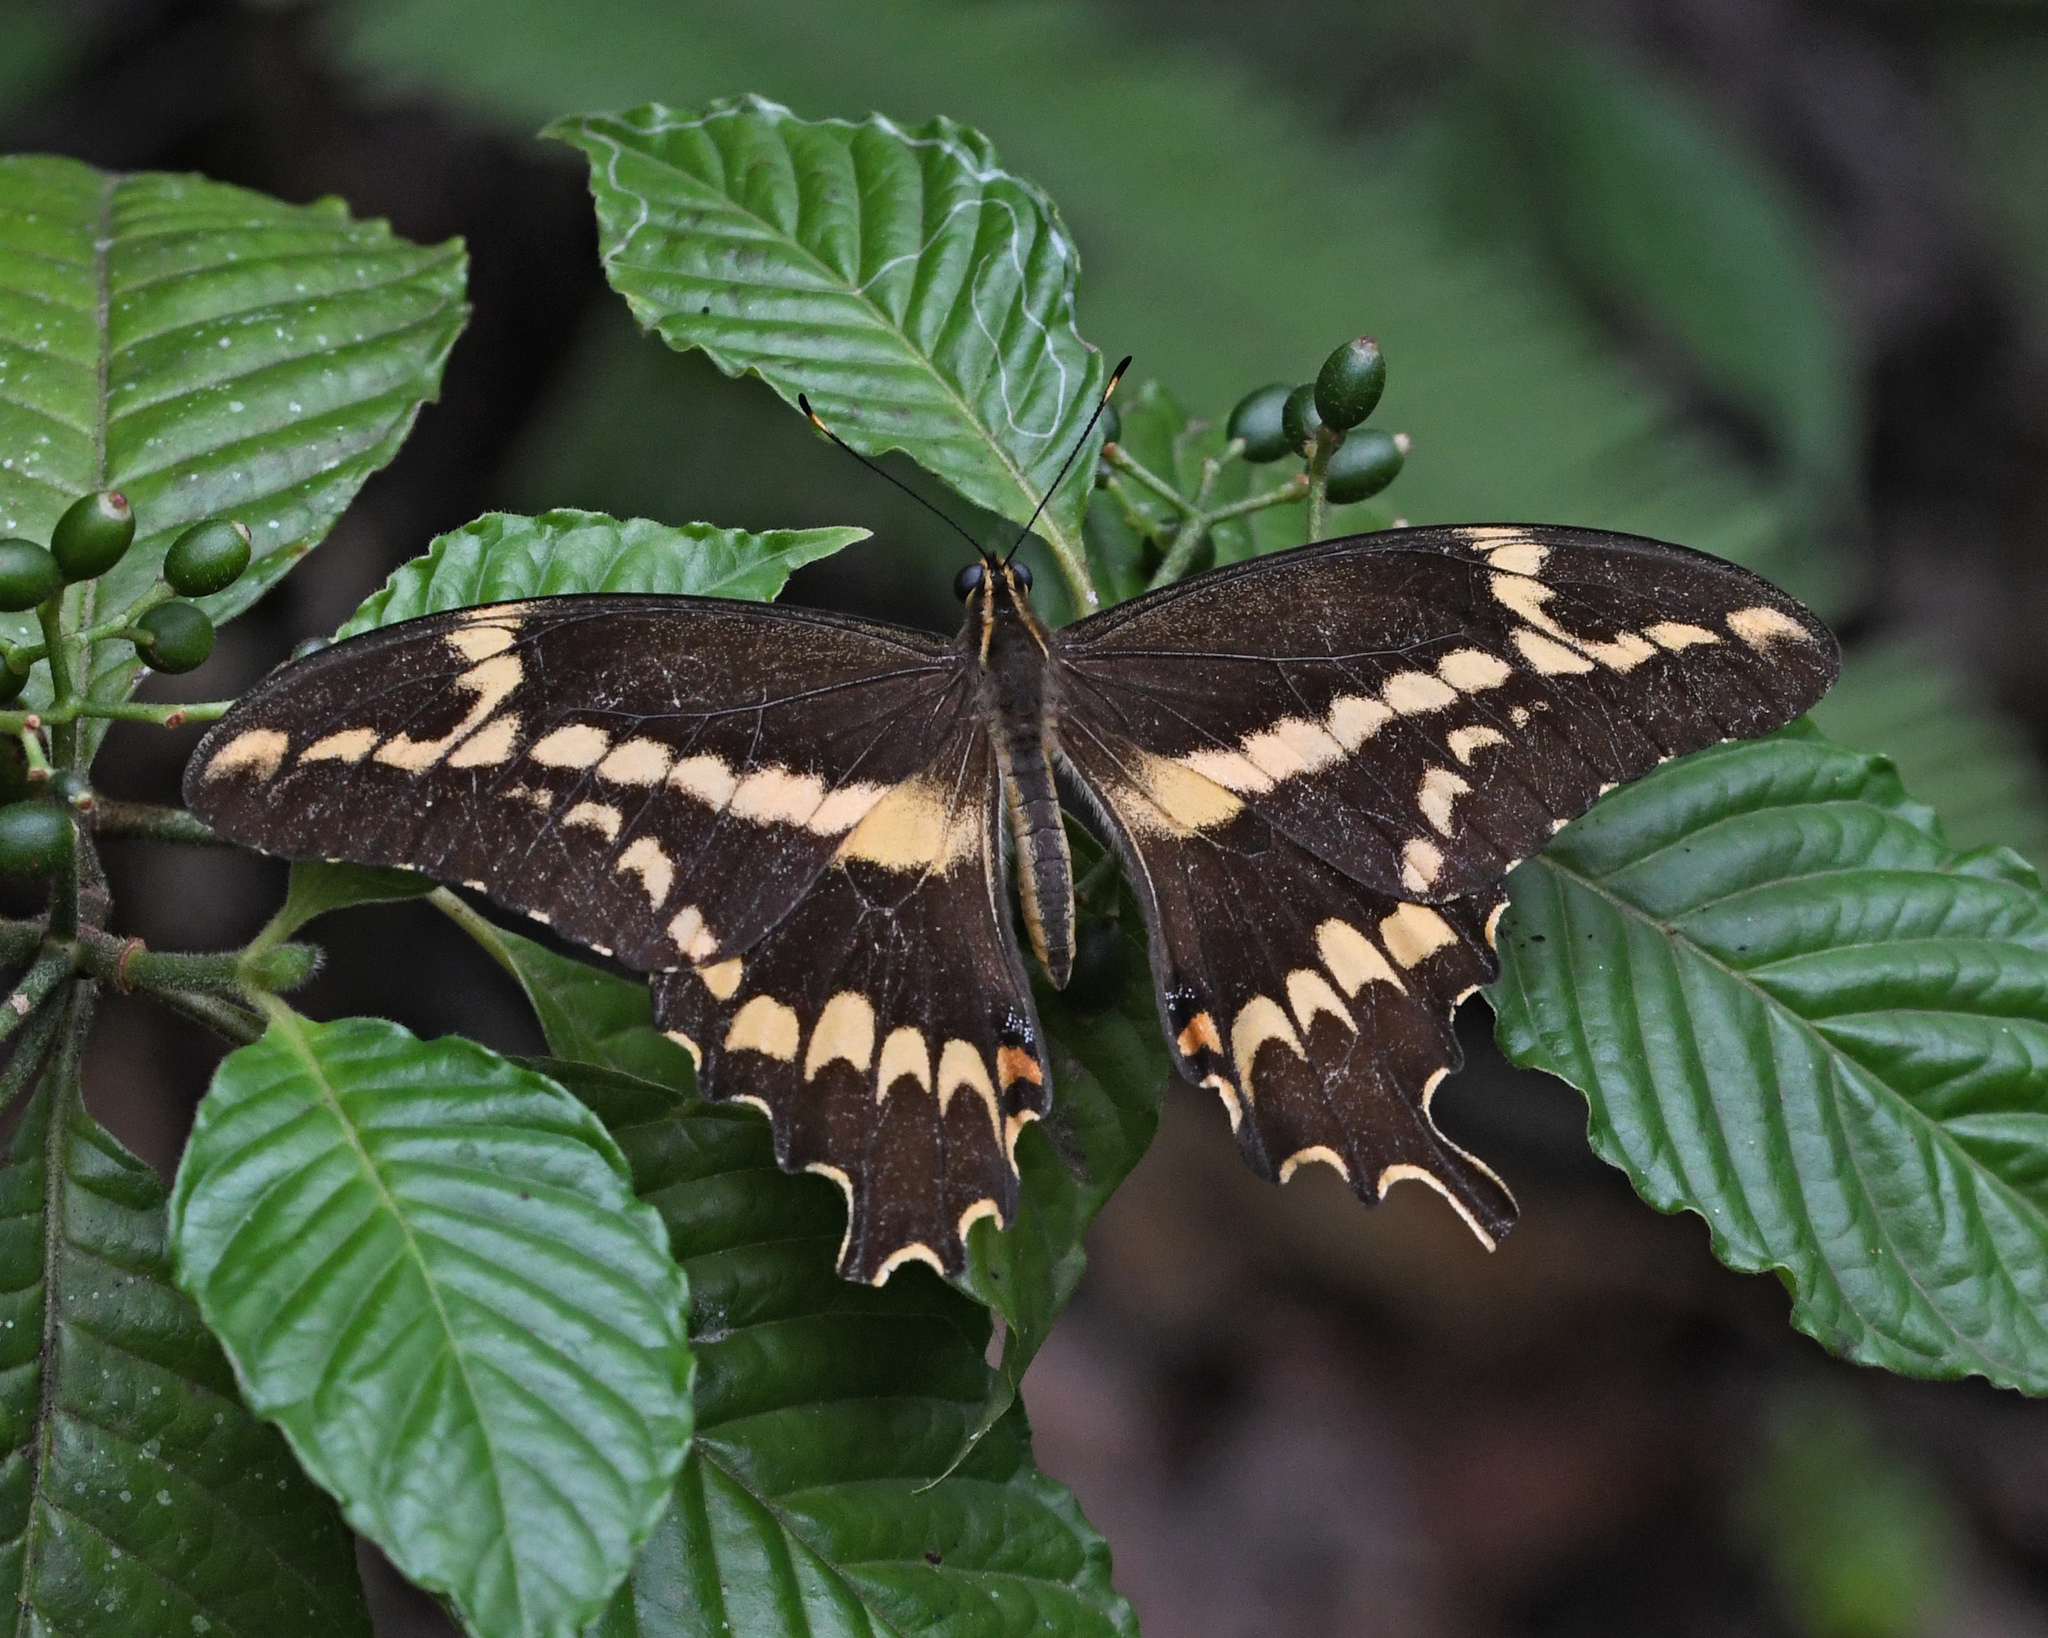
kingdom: Animalia
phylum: Arthropoda
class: Insecta
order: Lepidoptera
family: Papilionidae
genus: Papilio
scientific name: Papilio aristodemus
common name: Schaus' swallowtail
